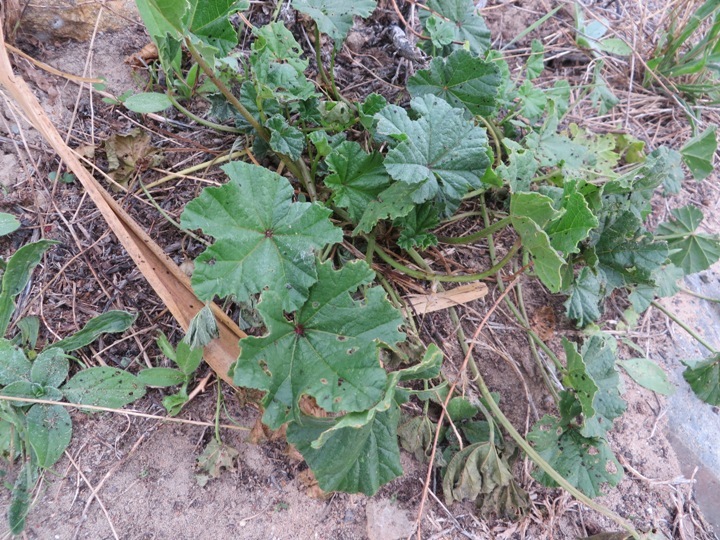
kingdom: Plantae
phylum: Tracheophyta
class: Magnoliopsida
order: Malvales
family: Malvaceae
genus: Malva
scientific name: Malva parviflora
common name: Least mallow
